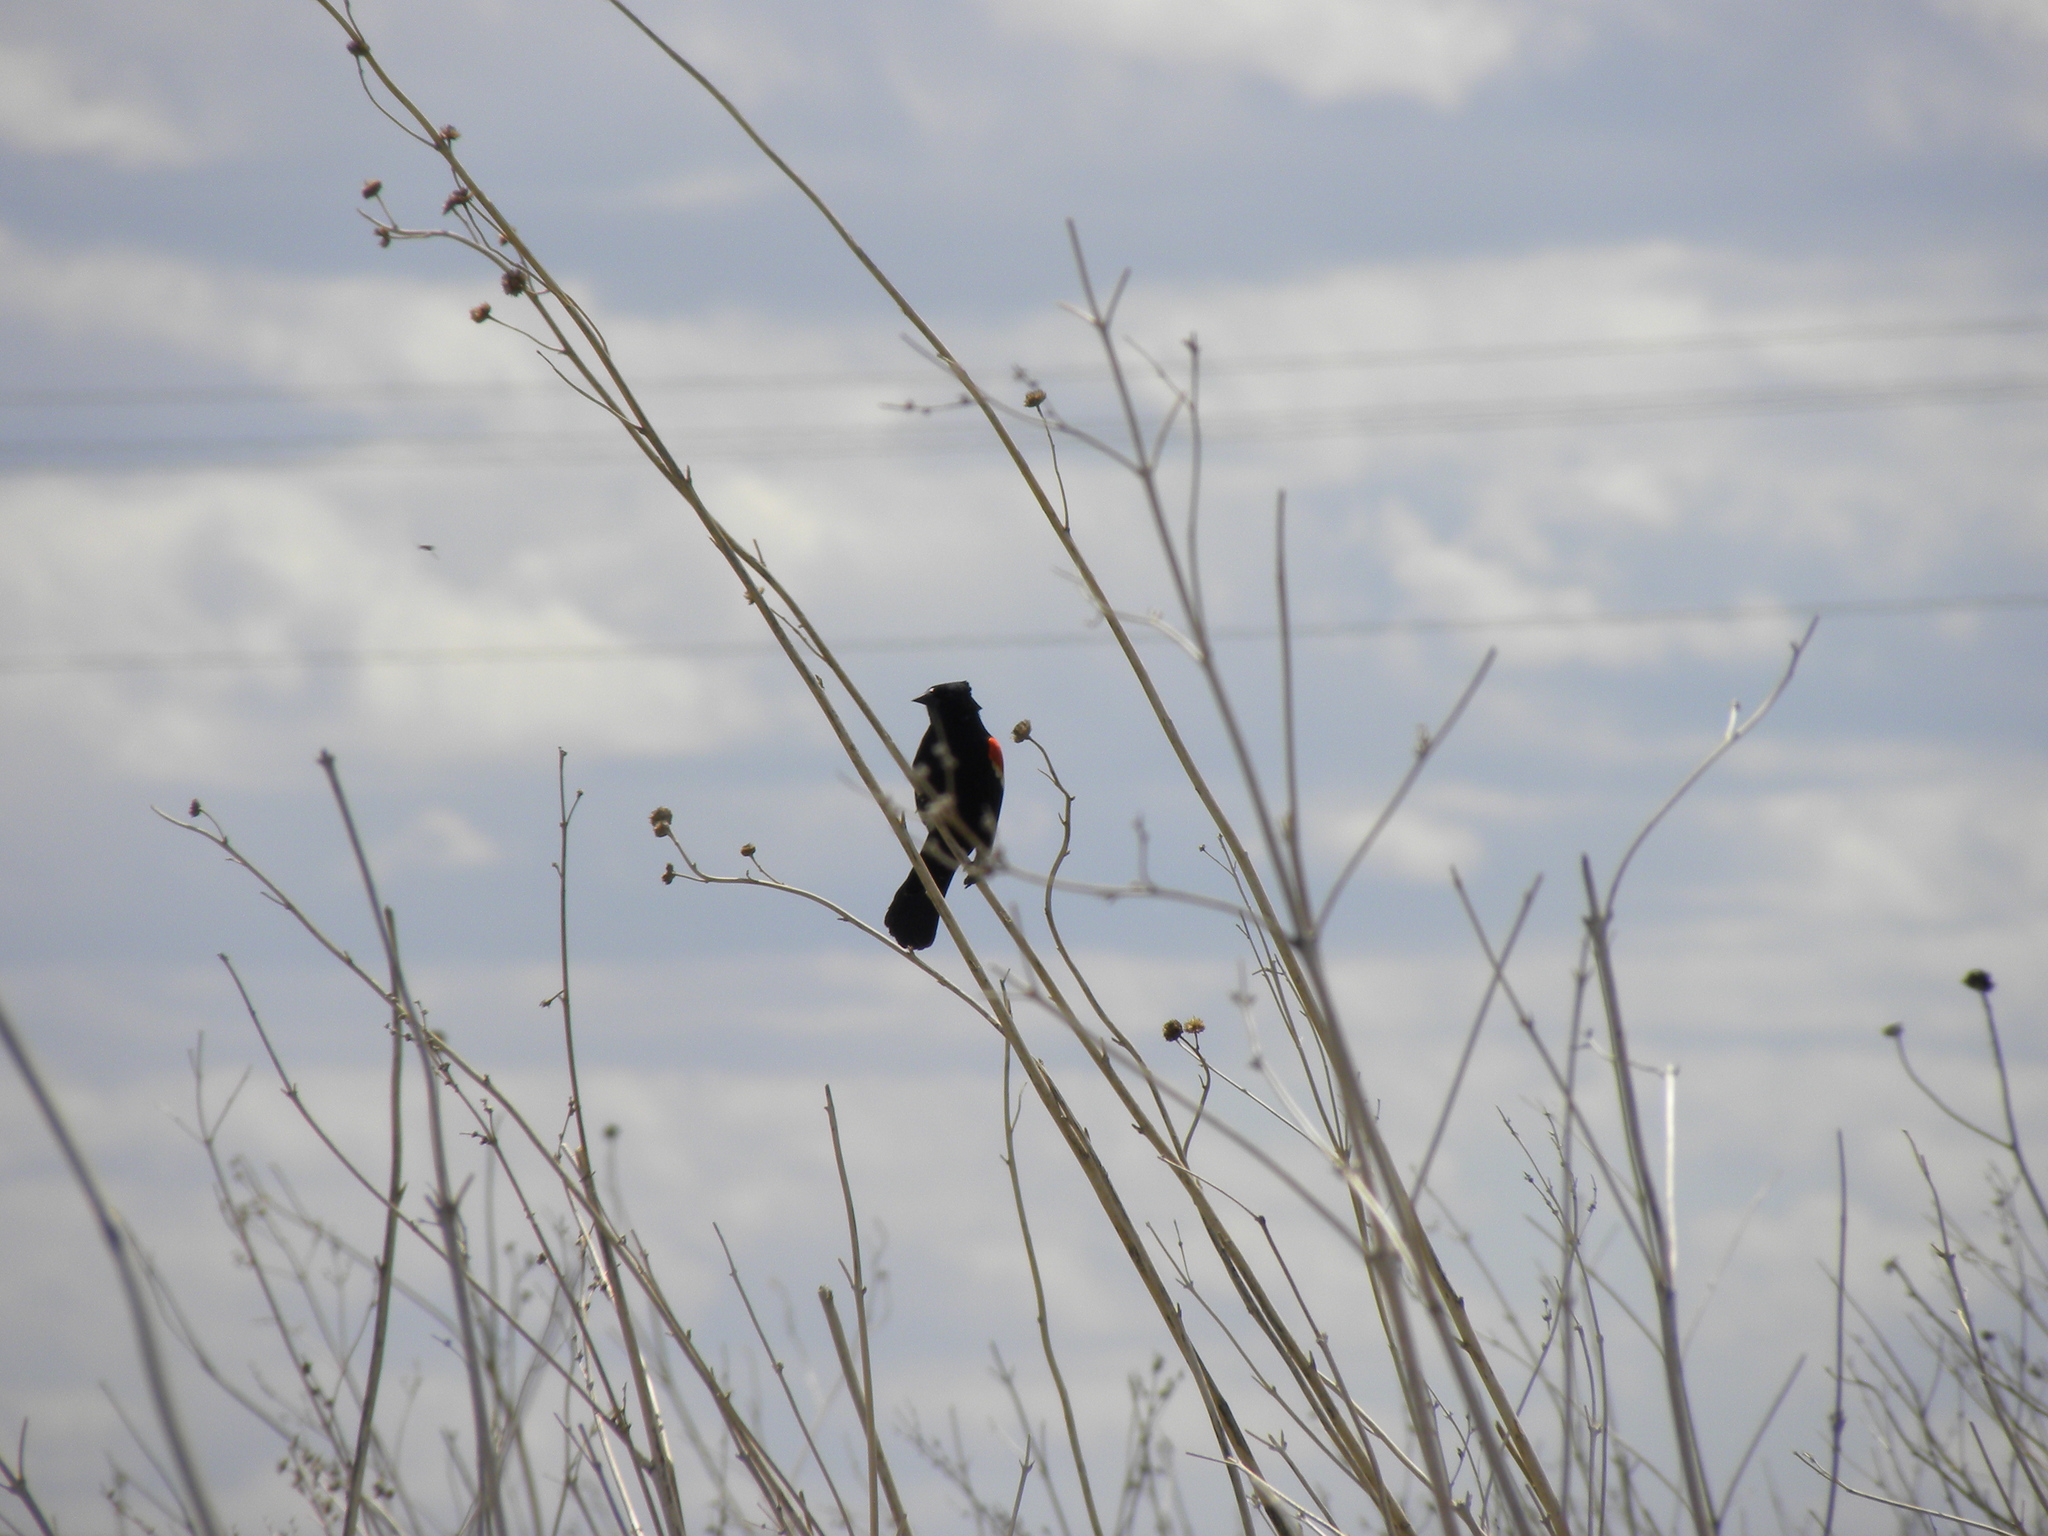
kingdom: Animalia
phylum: Chordata
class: Aves
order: Passeriformes
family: Icteridae
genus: Agelaius
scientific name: Agelaius phoeniceus
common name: Red-winged blackbird
